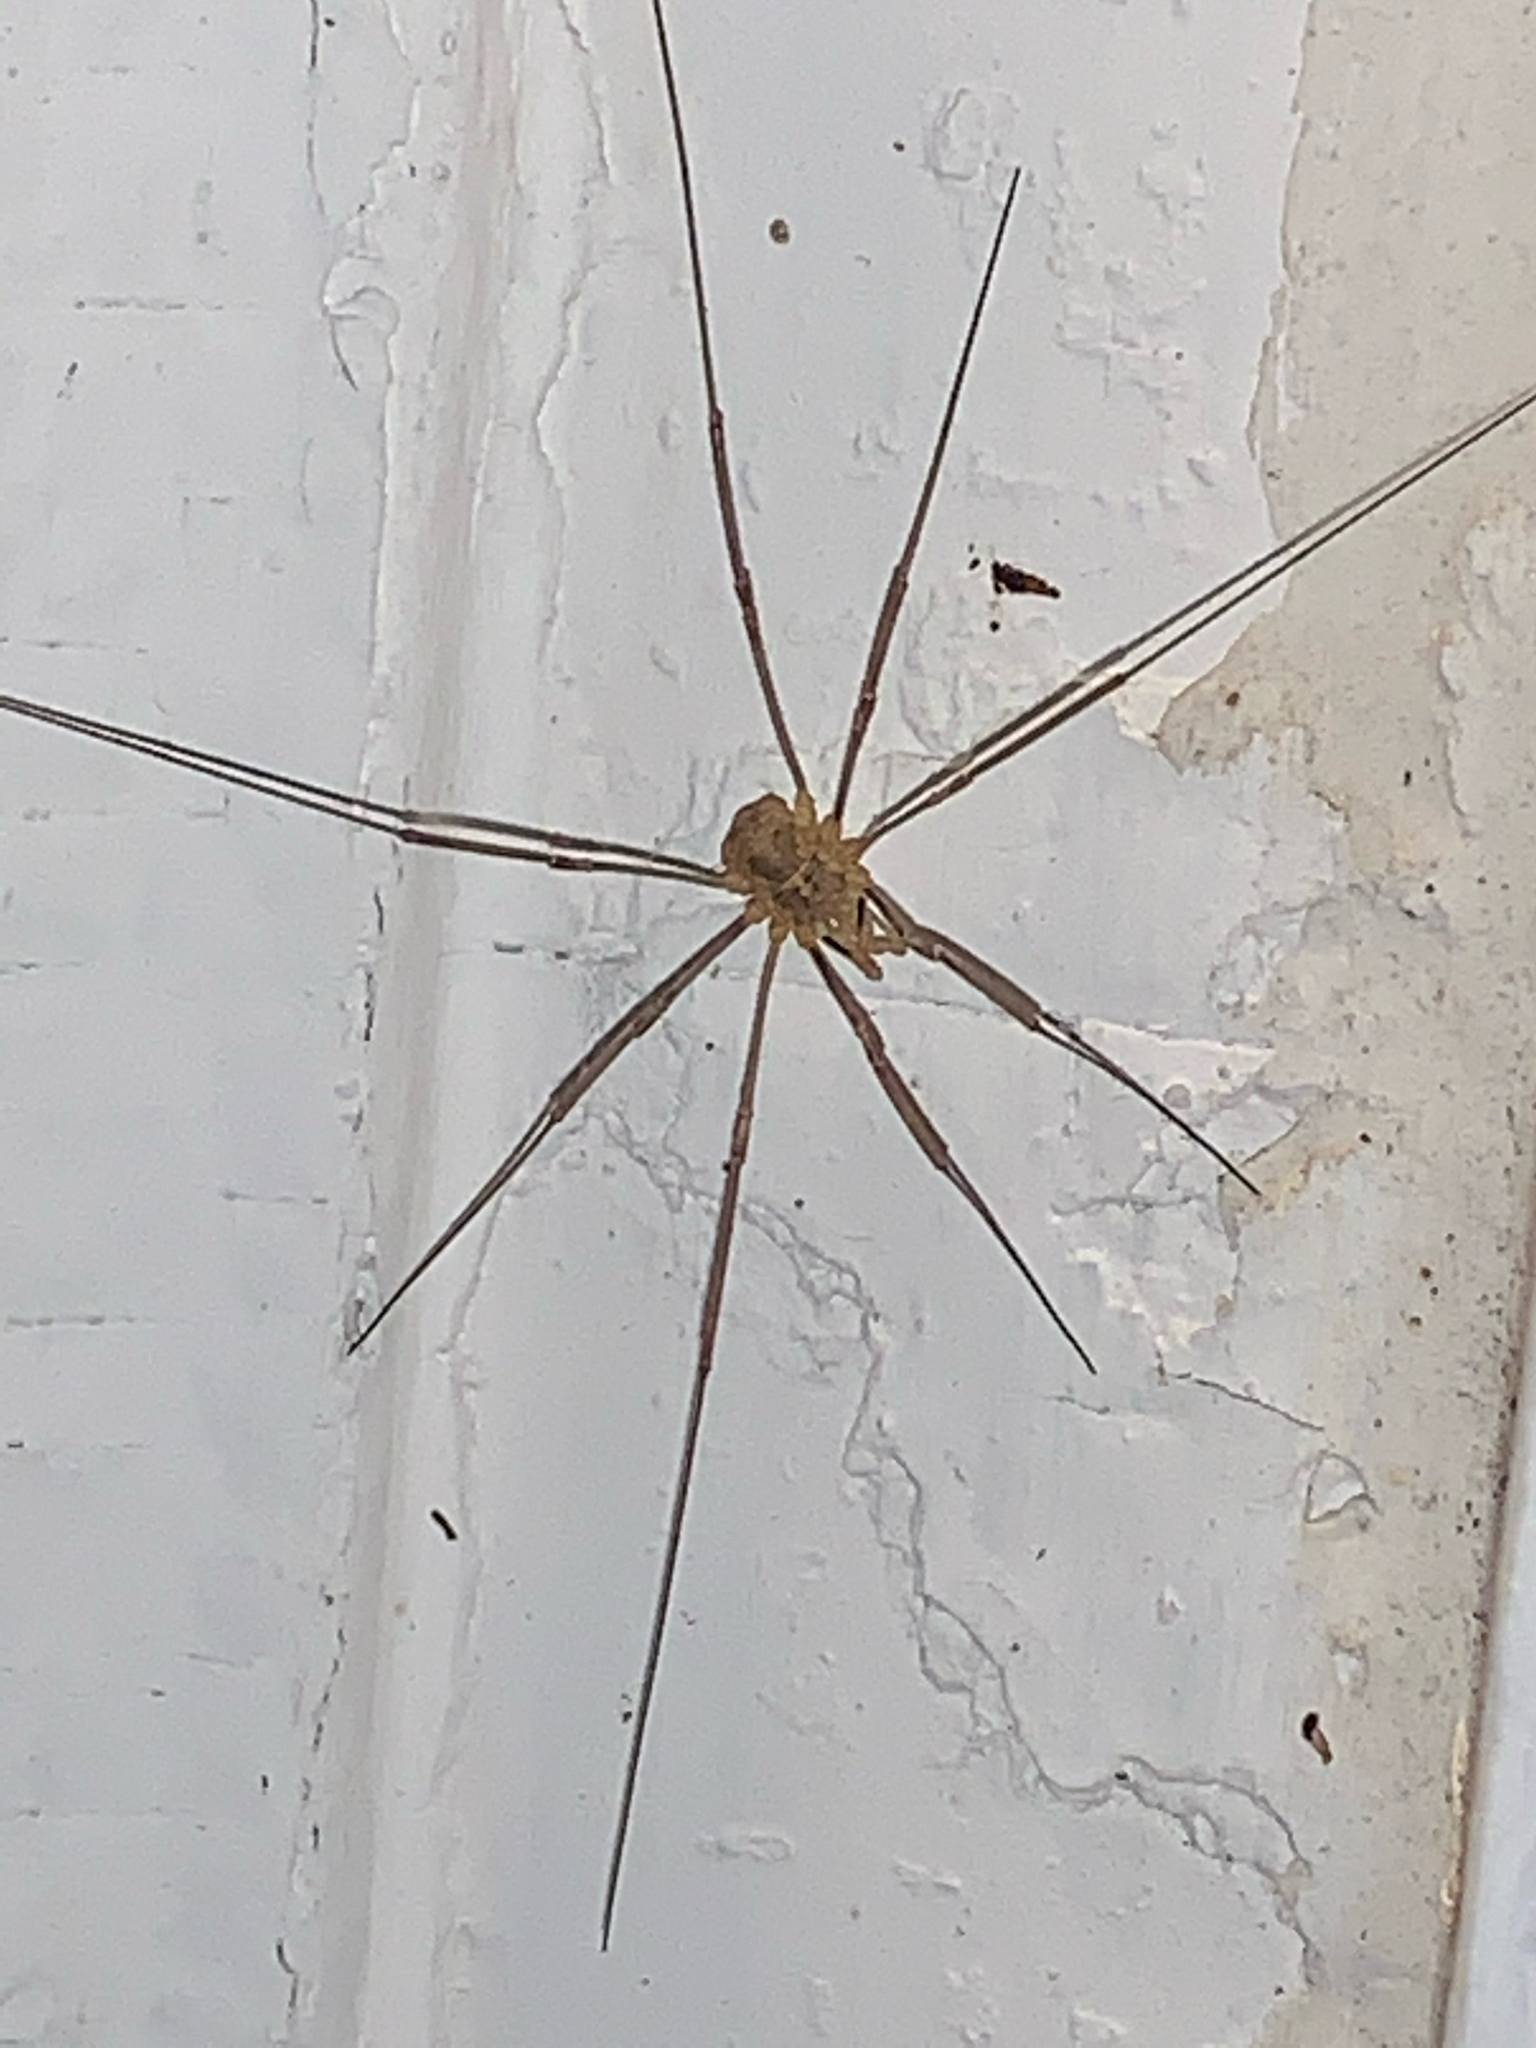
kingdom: Animalia
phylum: Arthropoda
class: Arachnida
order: Opiliones
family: Phalangiidae
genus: Phalangium
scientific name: Phalangium opilio
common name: Daddy longleg
